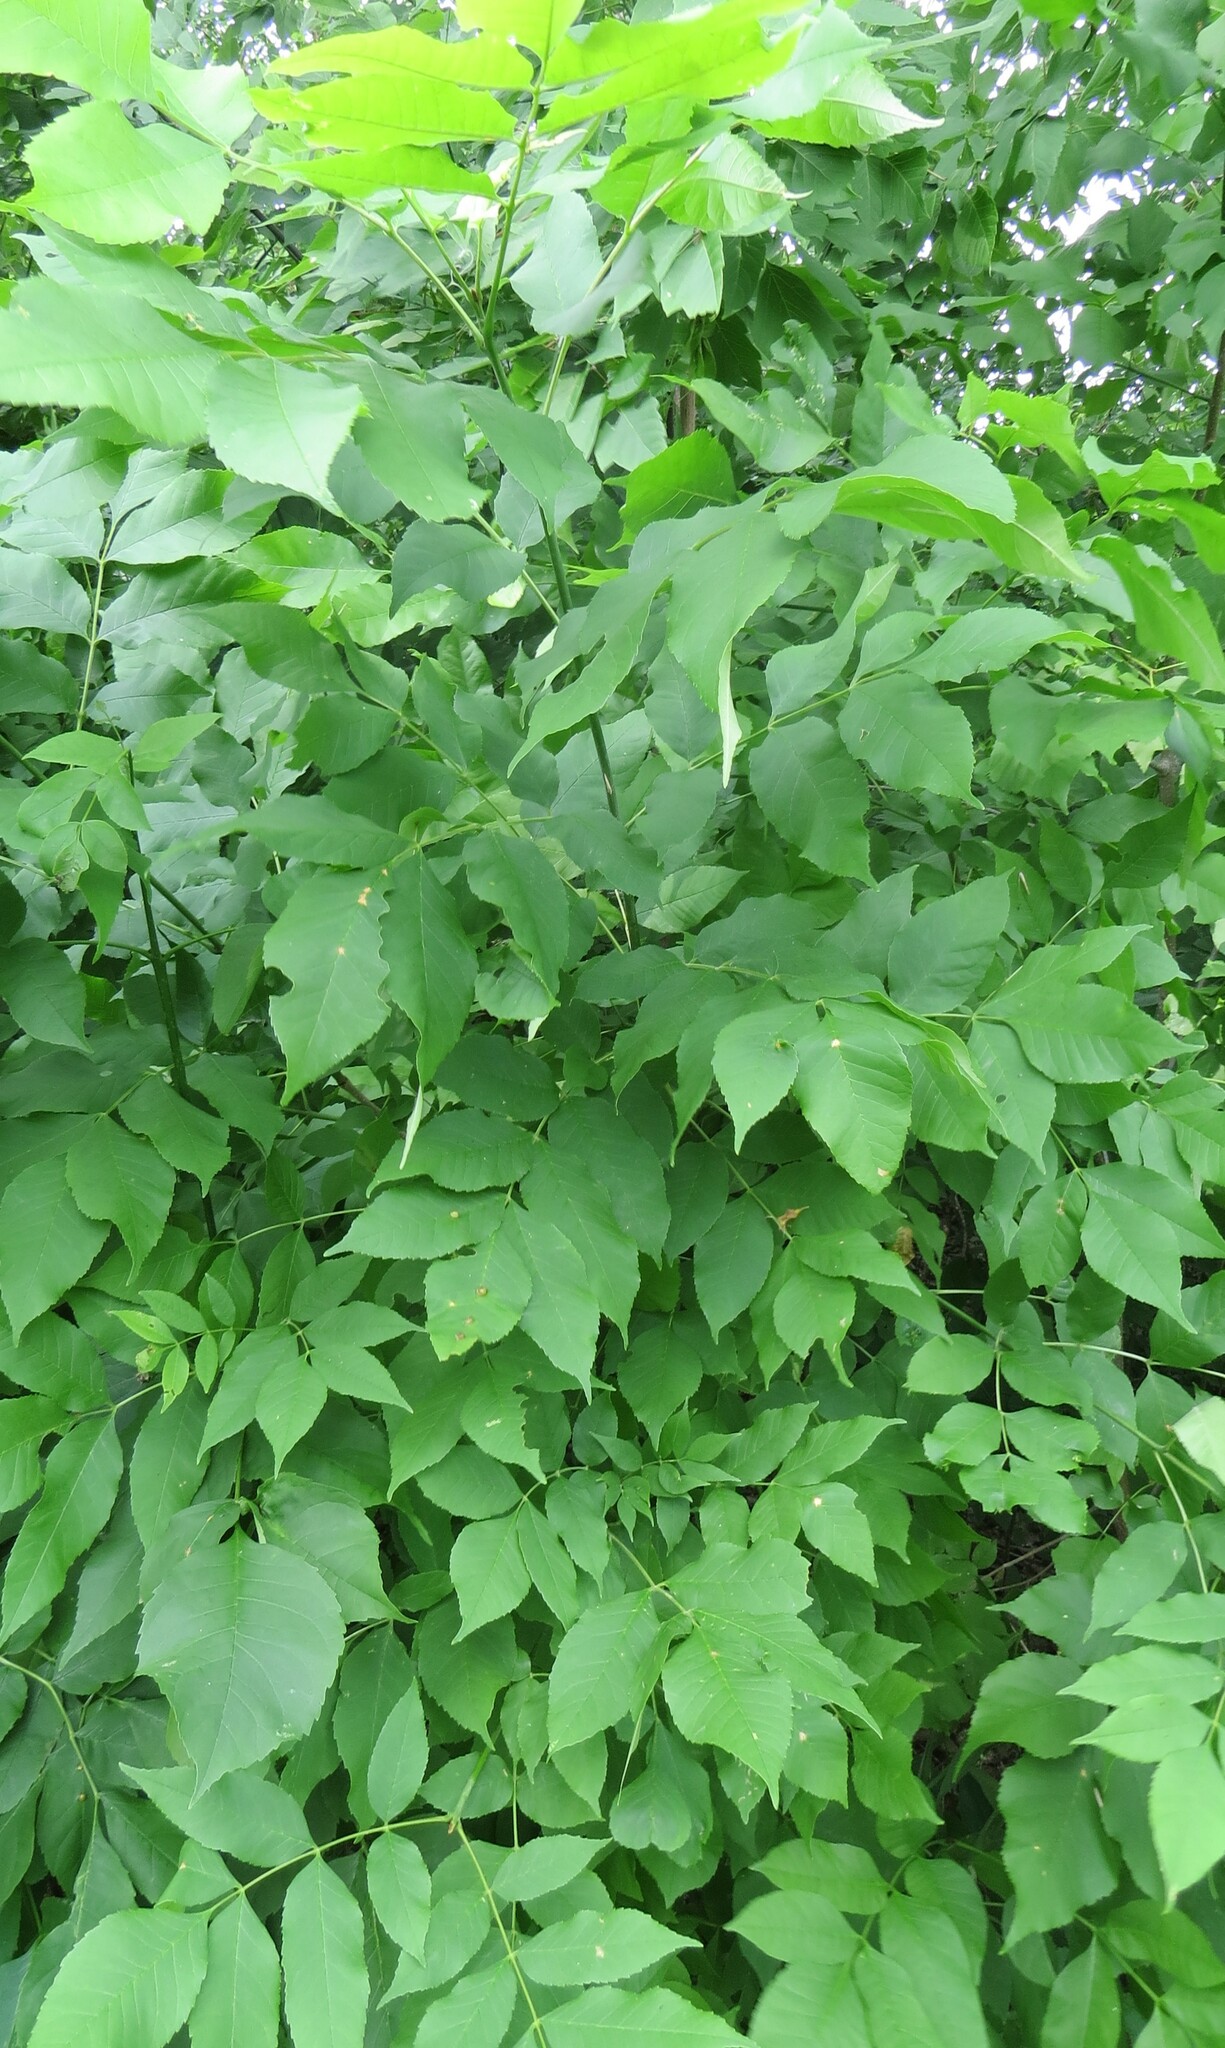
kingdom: Animalia
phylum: Arthropoda
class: Insecta
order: Diptera
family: Cecidomyiidae
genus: Dasineura
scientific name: Dasineura pellex
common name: Ash bullet gall midge
